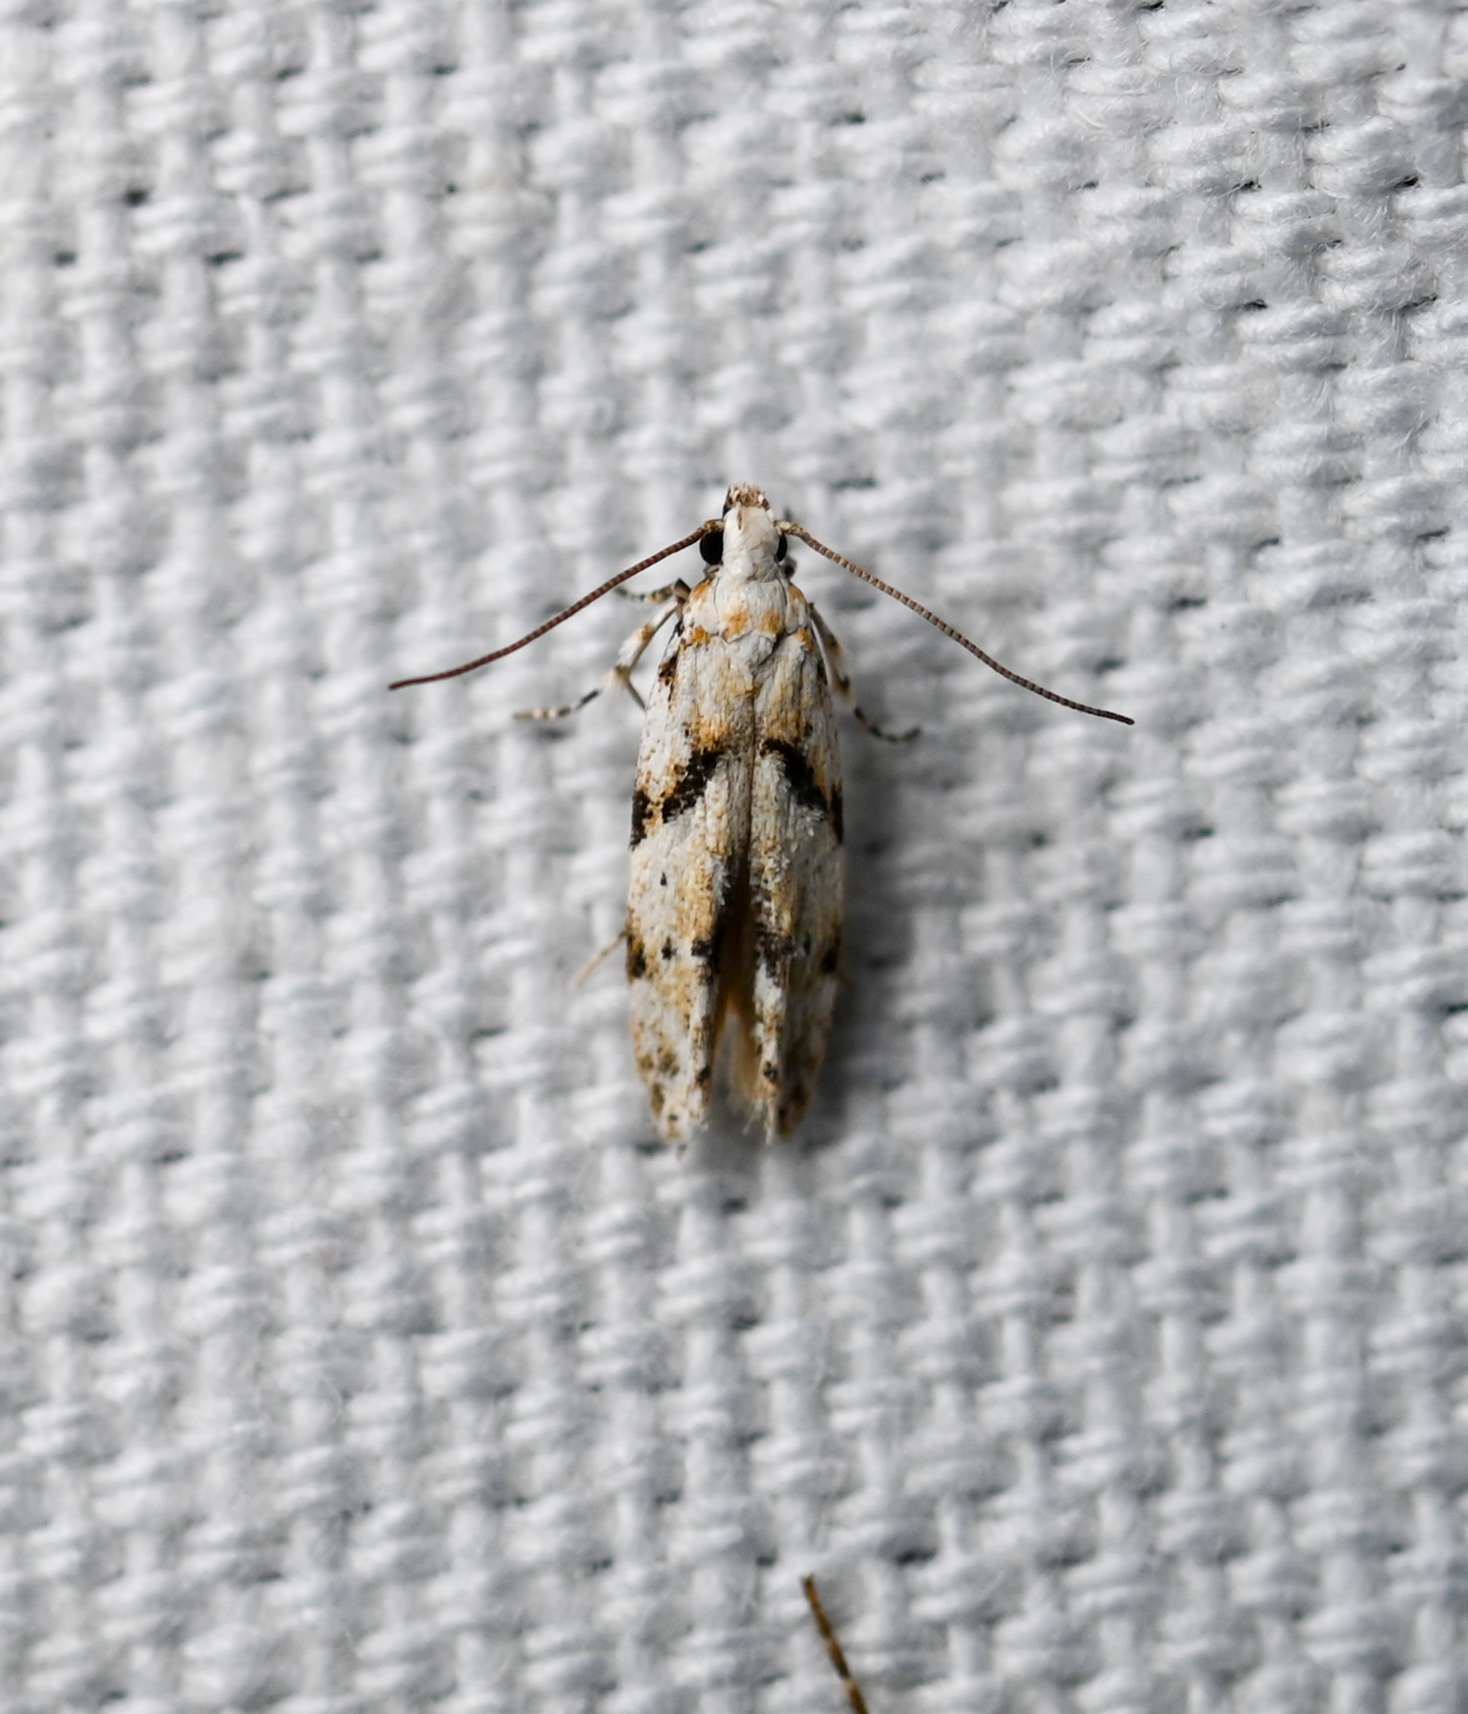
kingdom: Animalia
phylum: Arthropoda
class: Insecta
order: Lepidoptera
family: Gelechiidae
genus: Arogalea
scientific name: Arogalea cristifasciella
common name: White stripe-backed moth
